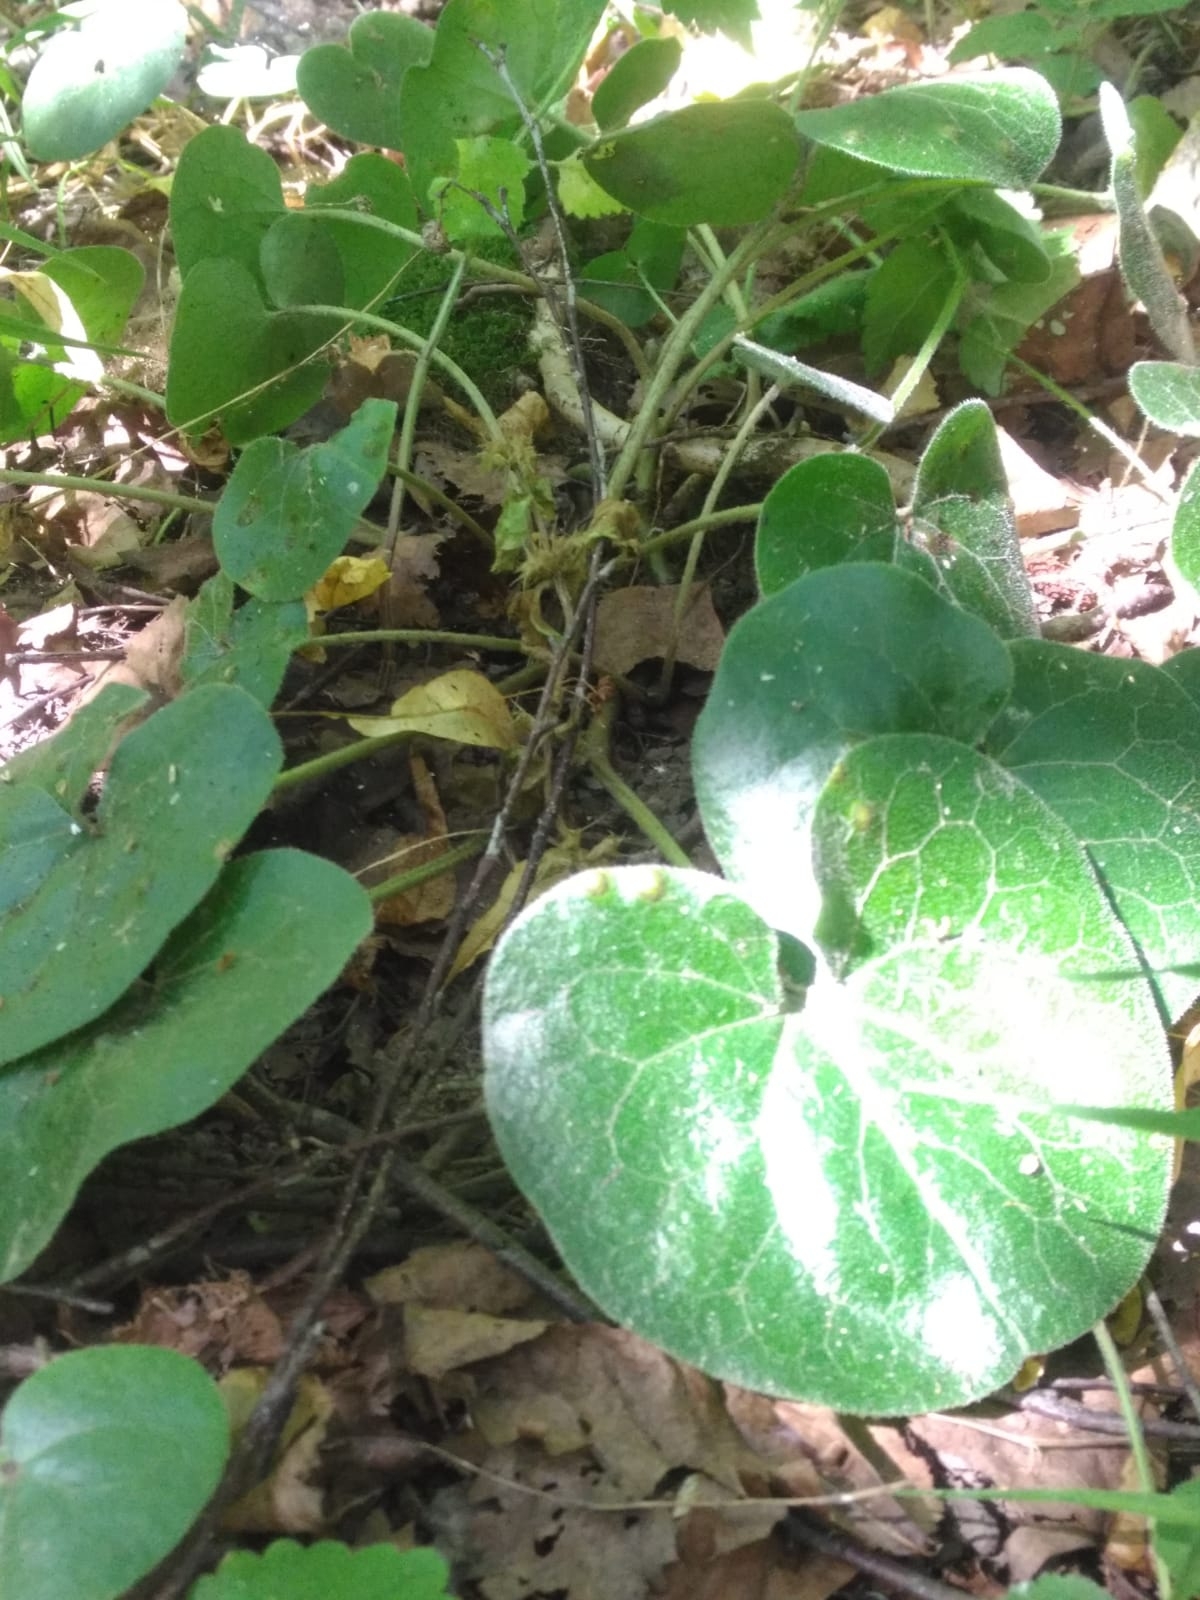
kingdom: Plantae
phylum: Tracheophyta
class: Magnoliopsida
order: Piperales
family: Aristolochiaceae
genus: Asarum
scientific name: Asarum europaeum
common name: Asarabacca
